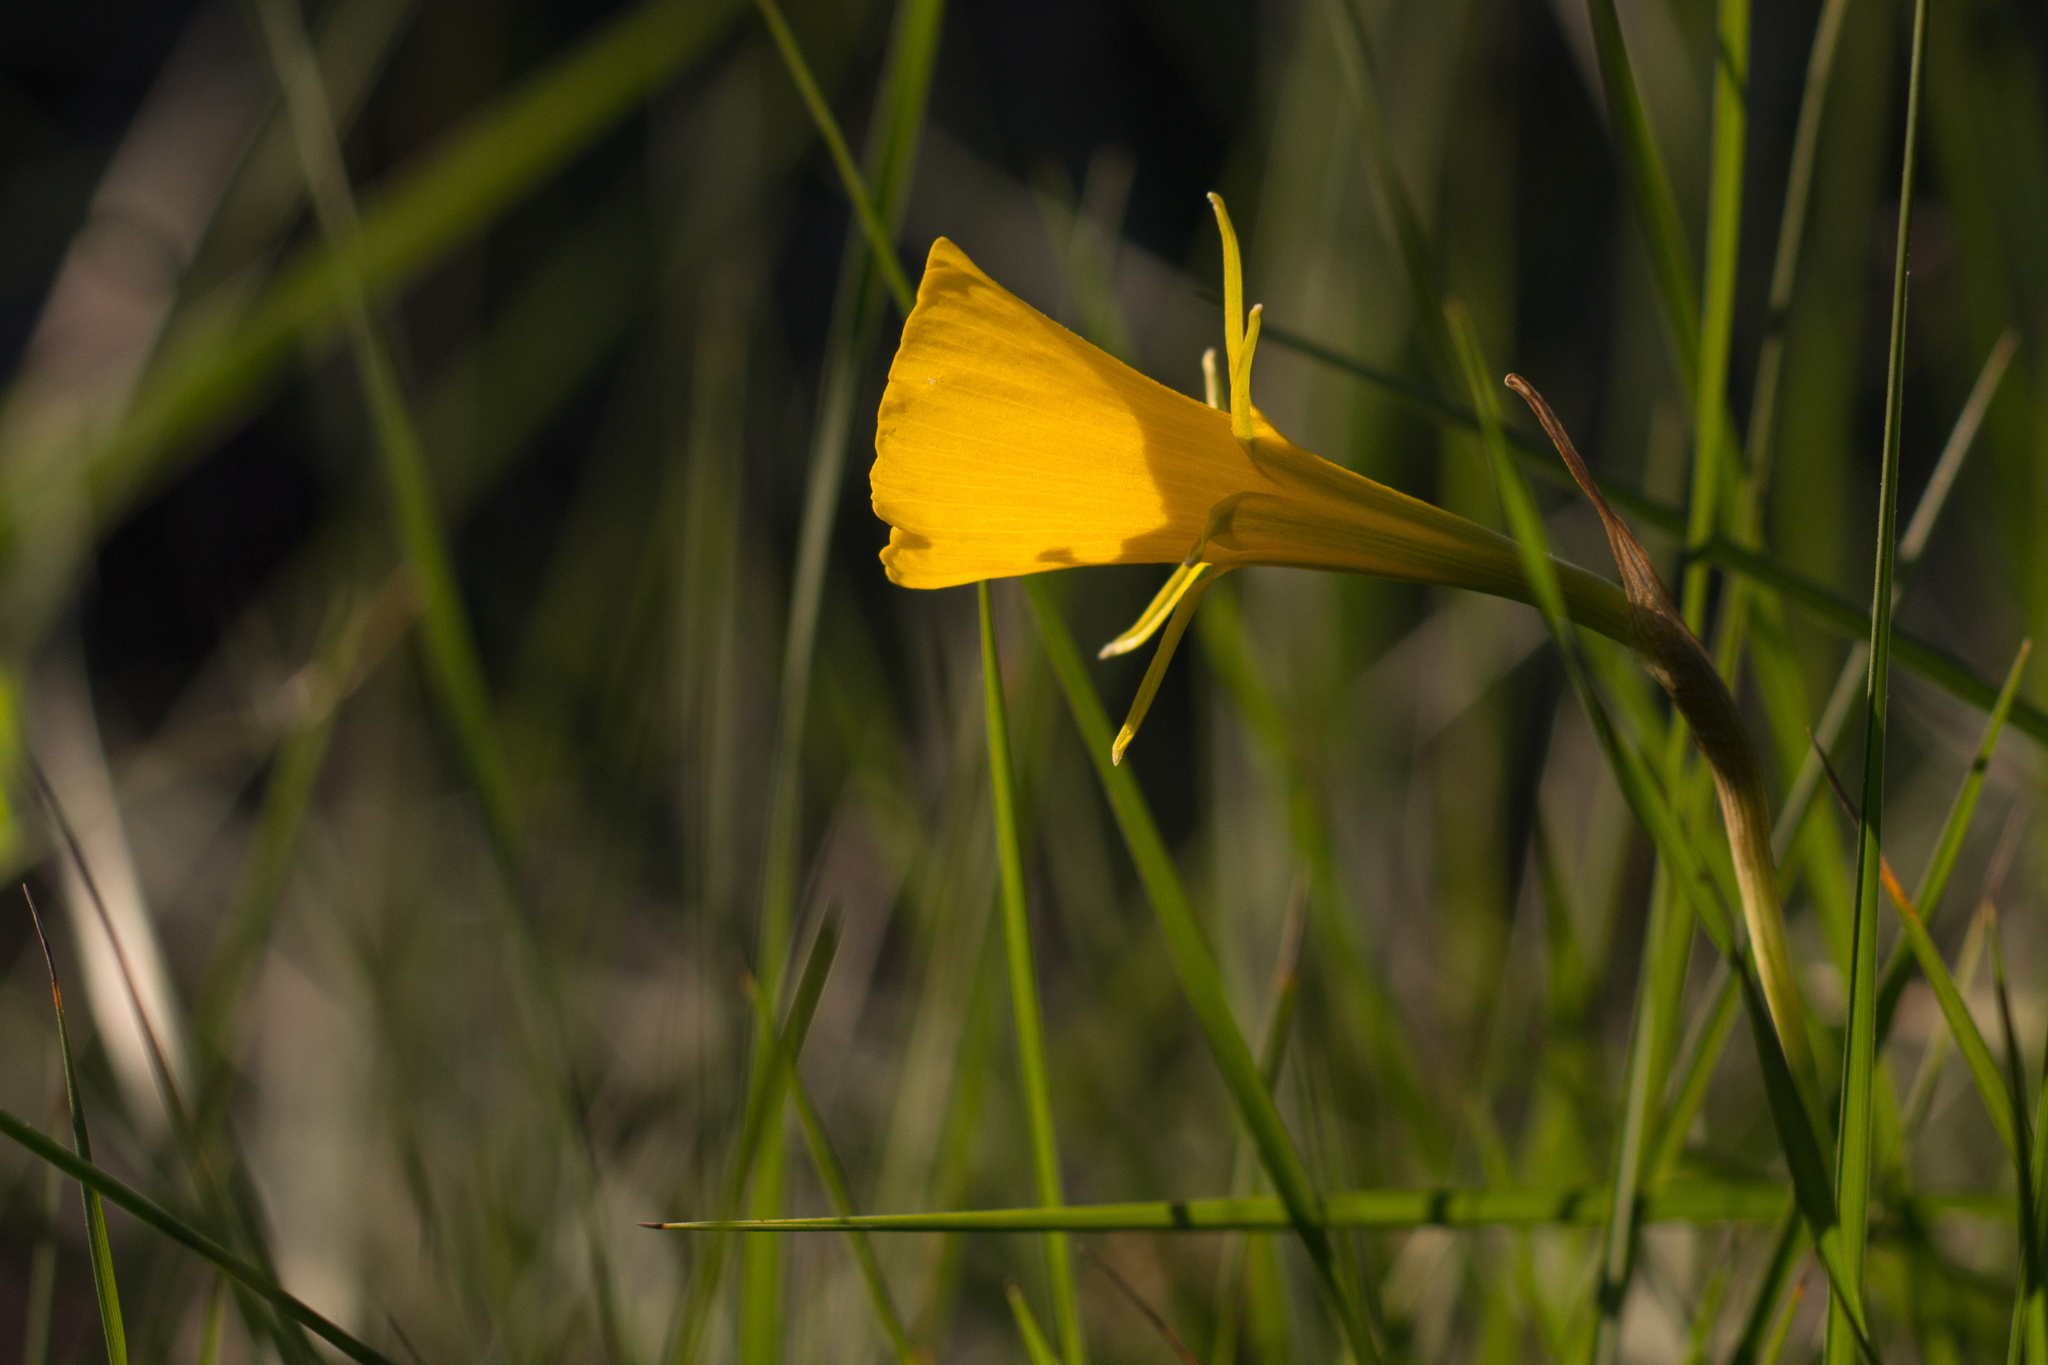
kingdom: Plantae
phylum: Tracheophyta
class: Liliopsida
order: Asparagales
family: Amaryllidaceae
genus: Narcissus
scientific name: Narcissus bulbocodium
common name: Hoop-petticoat daffodil
